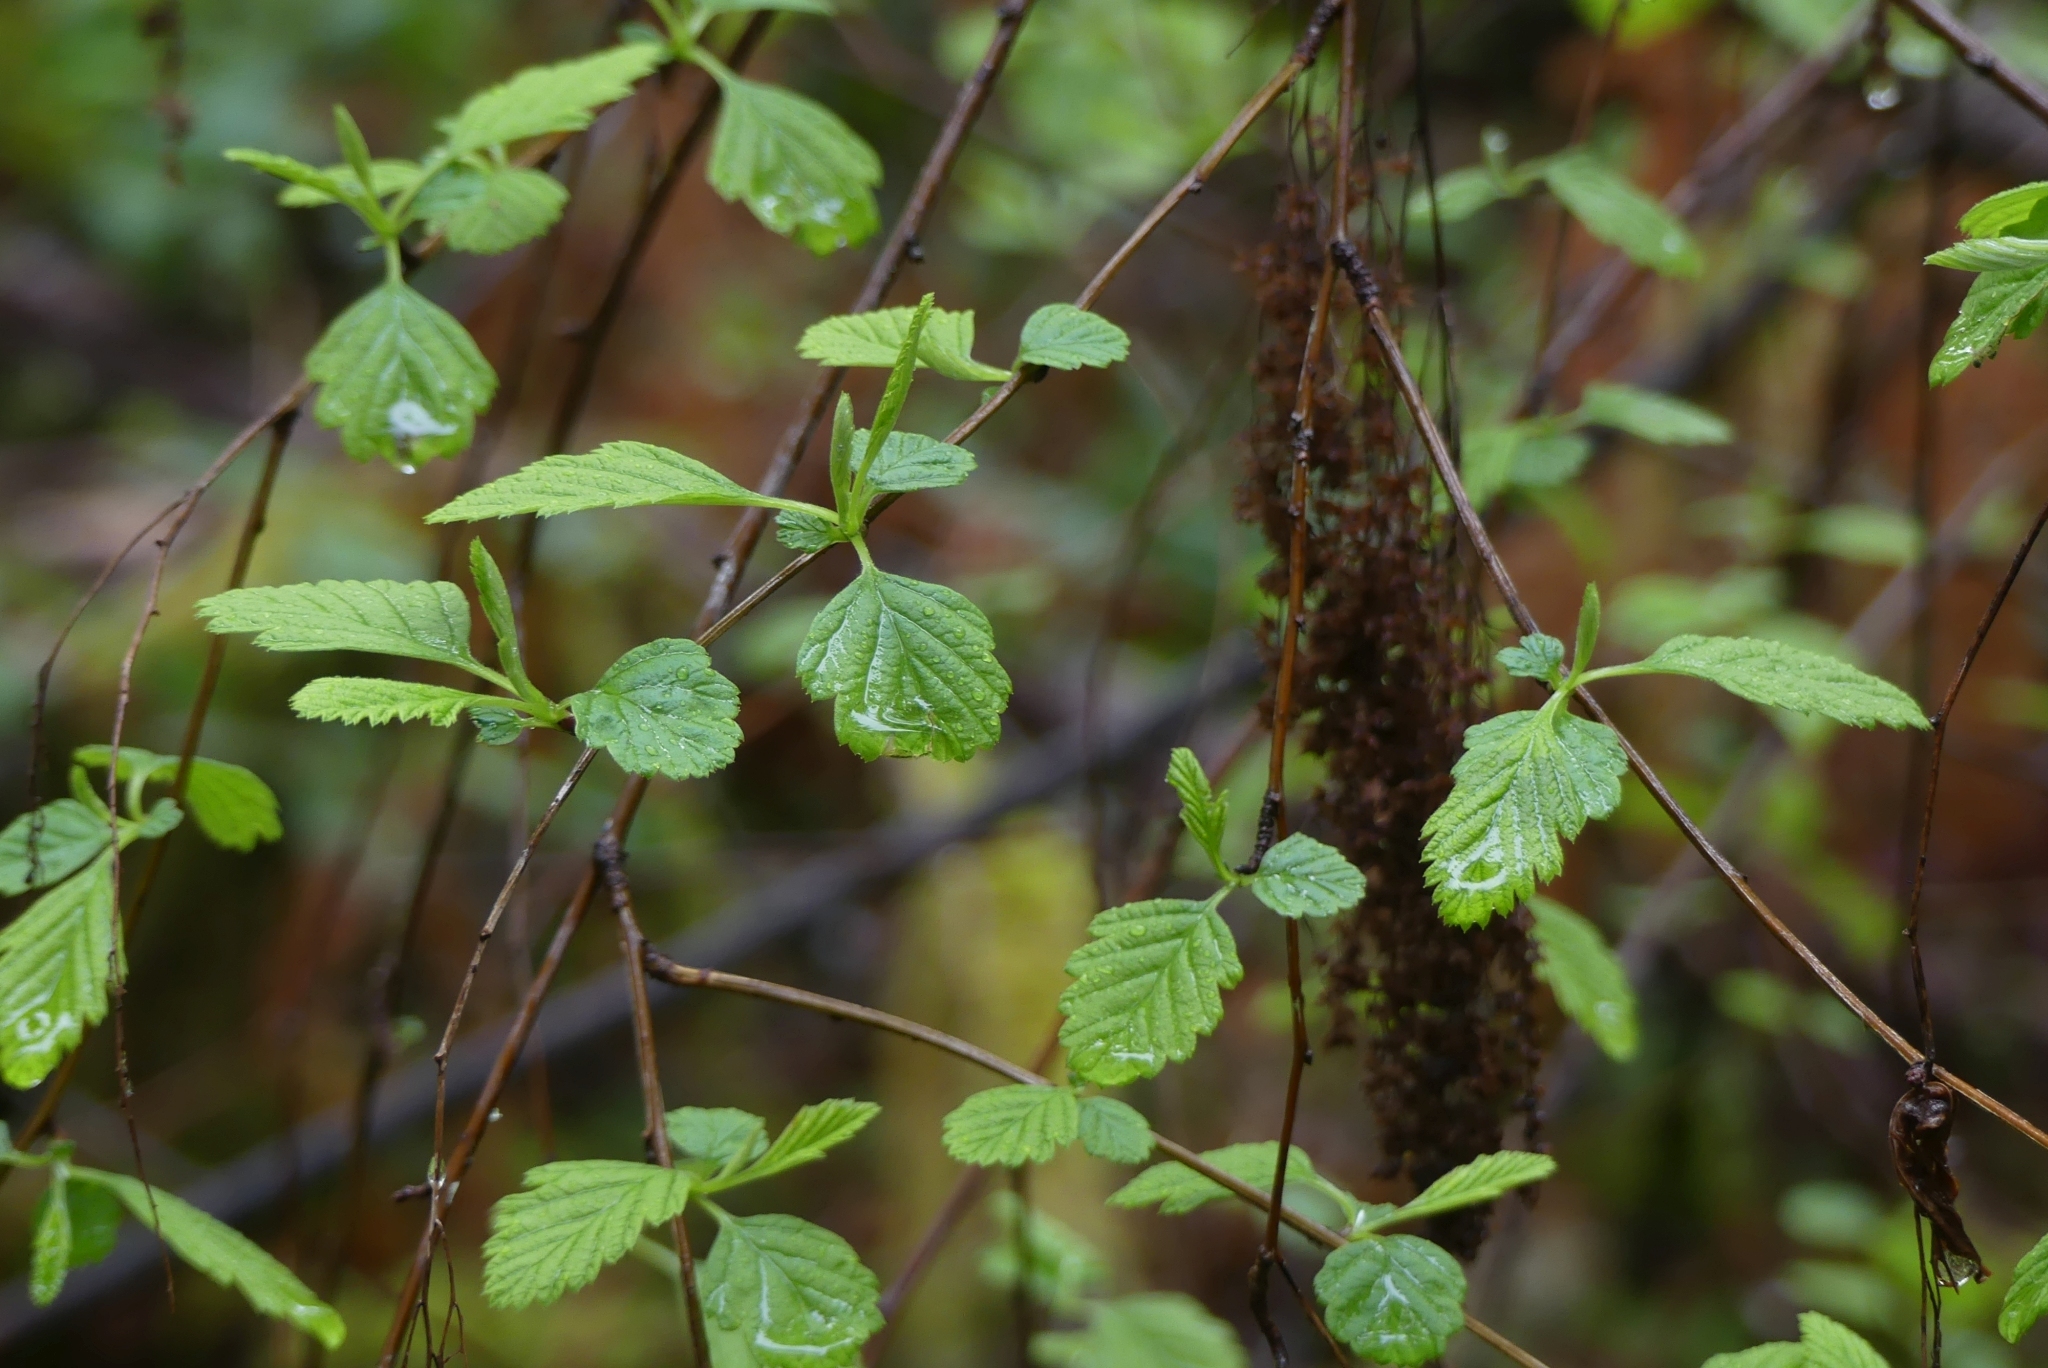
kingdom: Plantae
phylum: Tracheophyta
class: Magnoliopsida
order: Rosales
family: Rosaceae
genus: Holodiscus
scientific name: Holodiscus discolor
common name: Oceanspray
